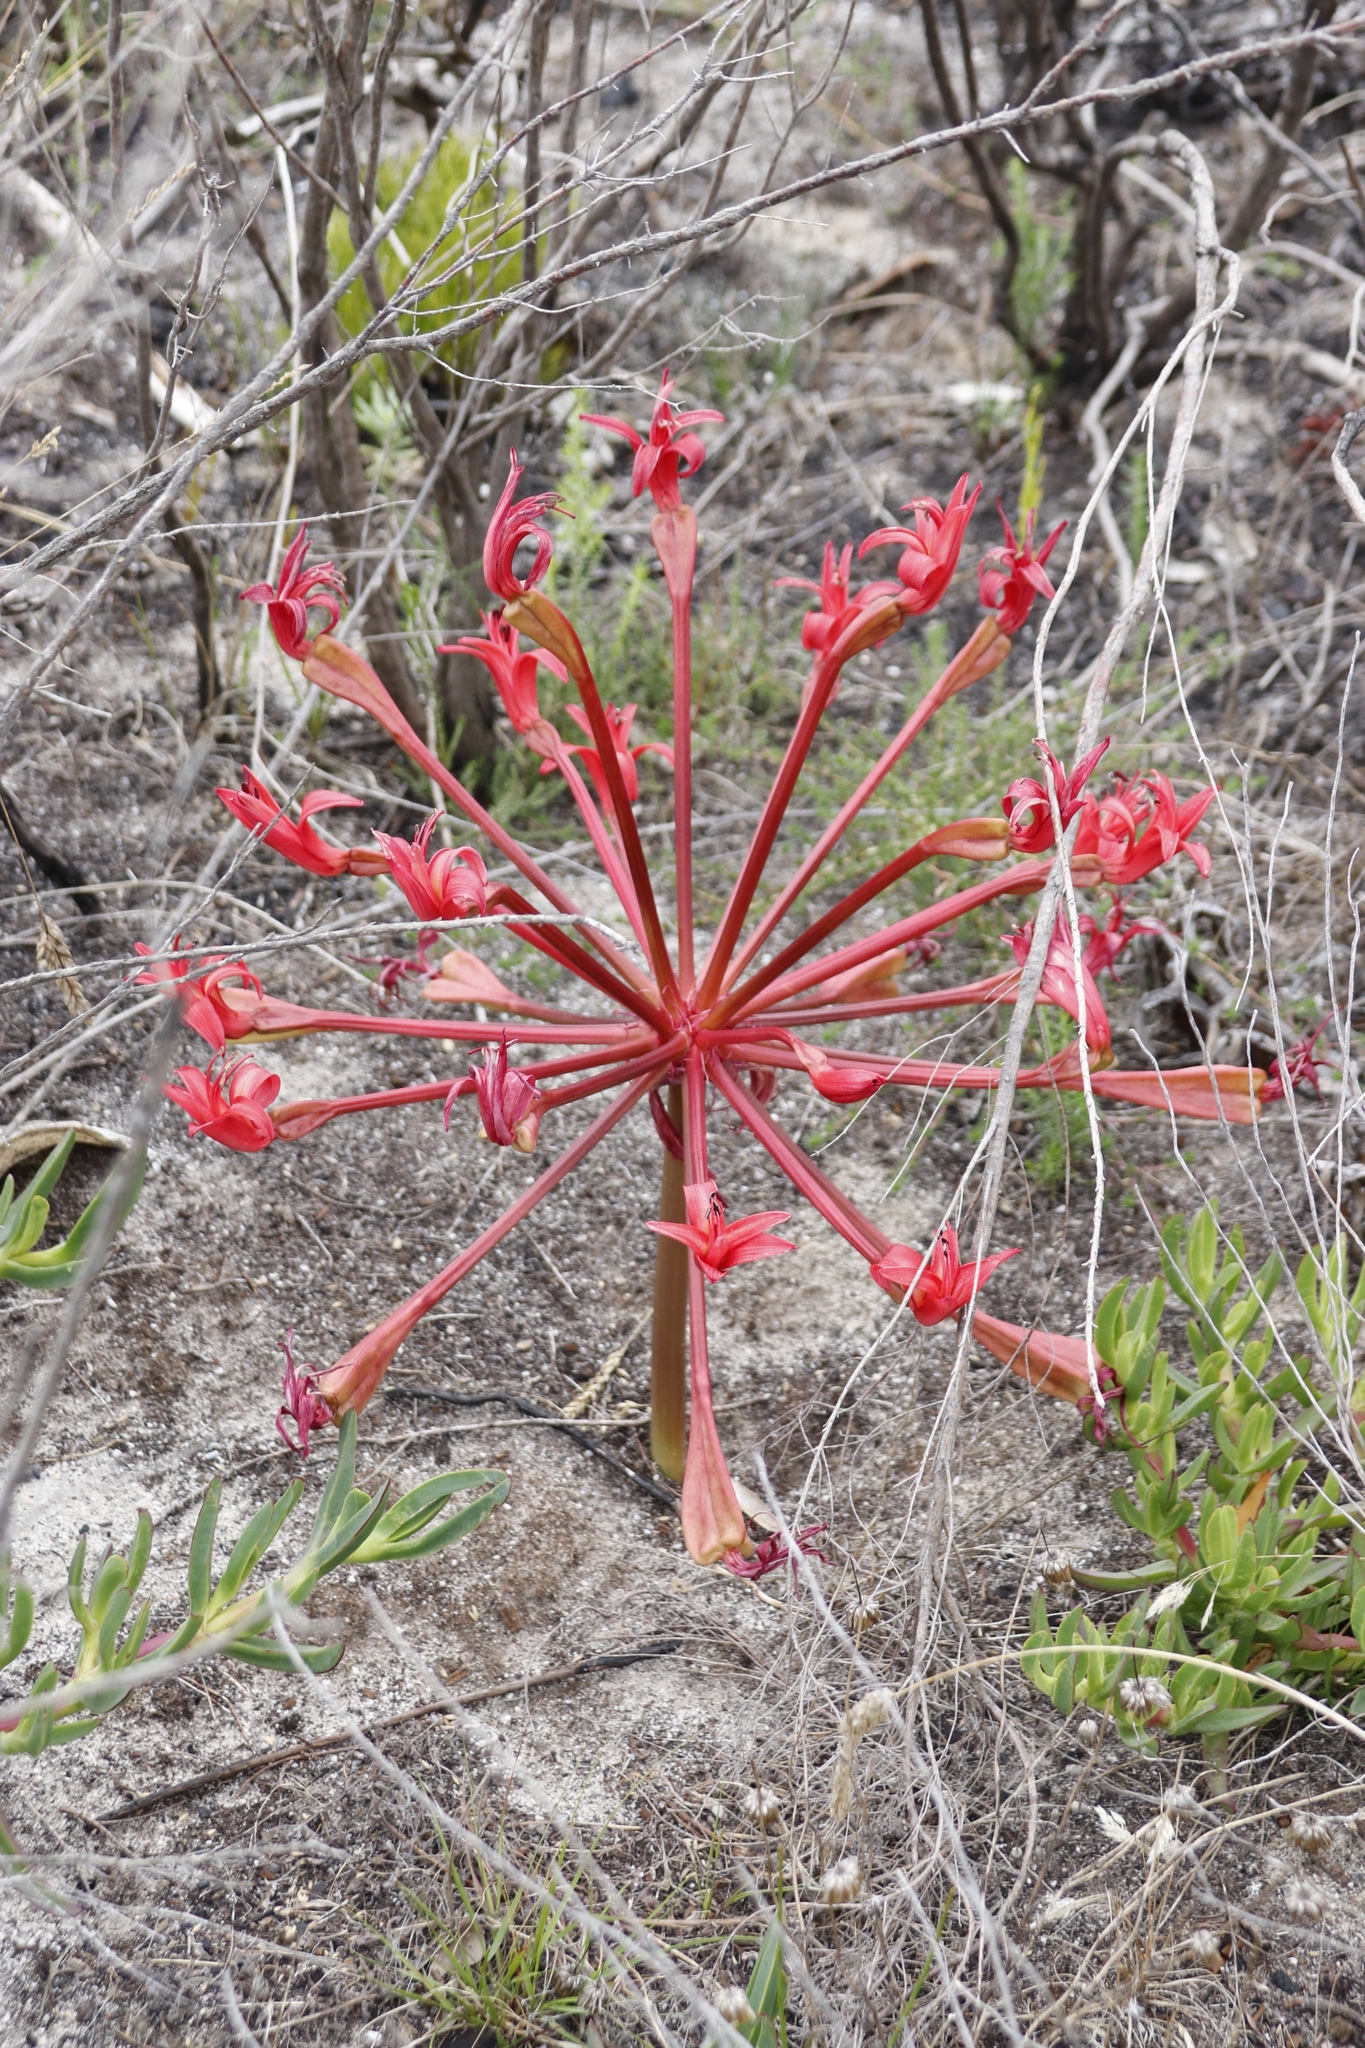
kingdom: Plantae
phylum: Tracheophyta
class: Liliopsida
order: Asparagales
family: Amaryllidaceae
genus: Brunsvigia
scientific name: Brunsvigia orientalis
